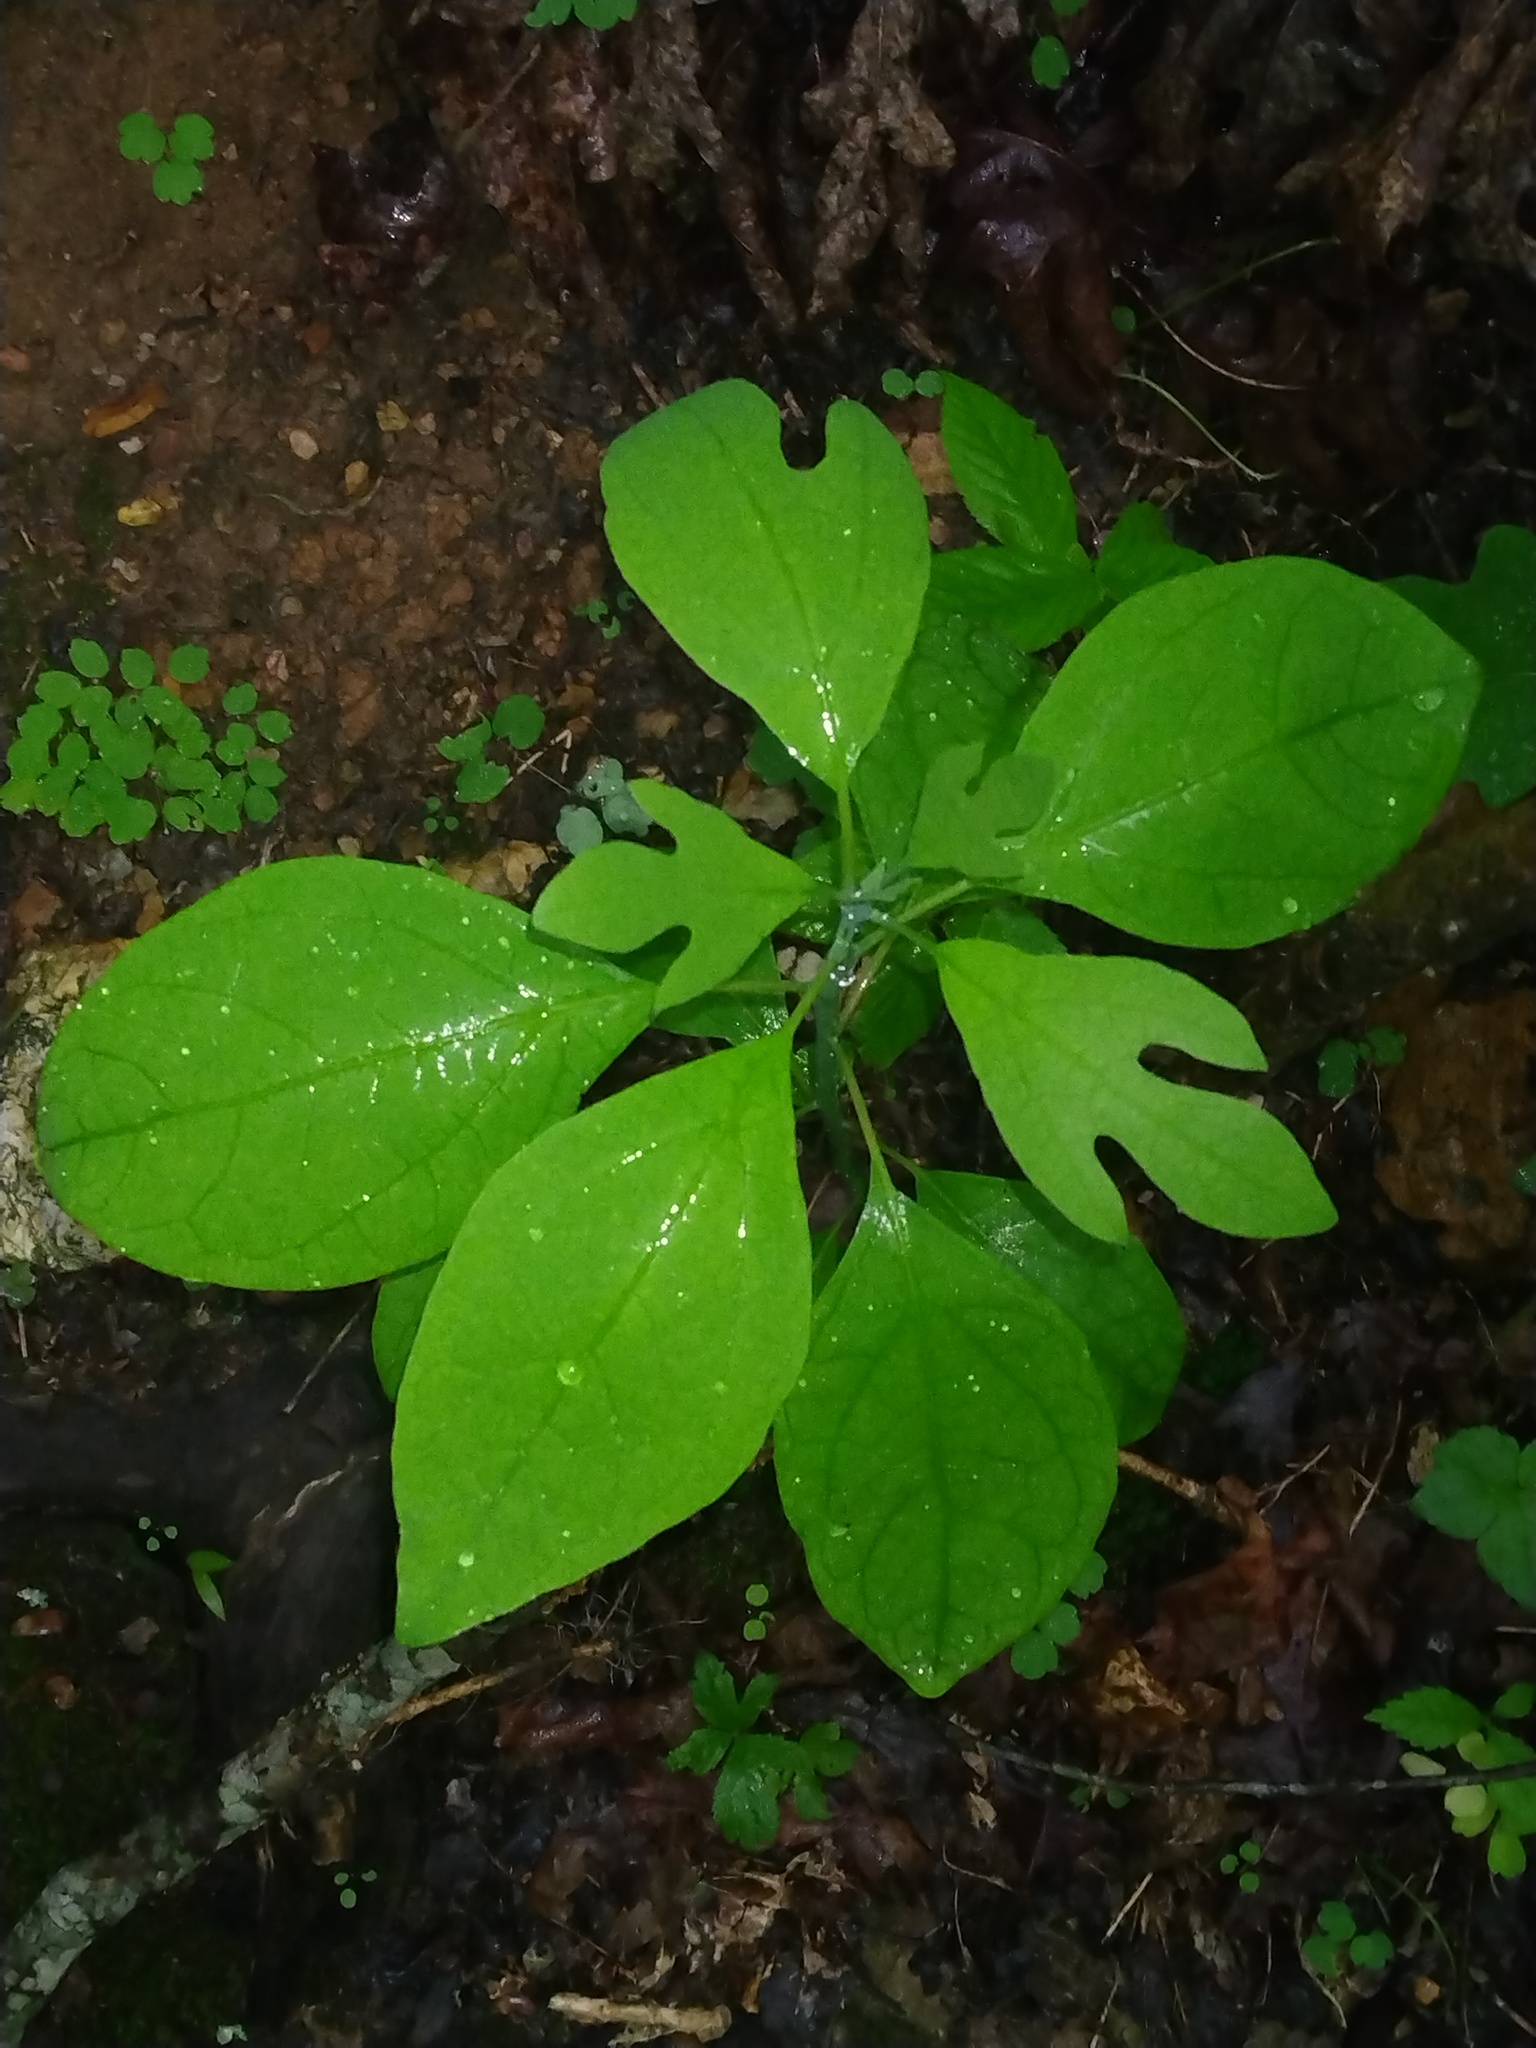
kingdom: Plantae
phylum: Tracheophyta
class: Magnoliopsida
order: Laurales
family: Lauraceae
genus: Sassafras
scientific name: Sassafras albidum
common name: Sassafras
